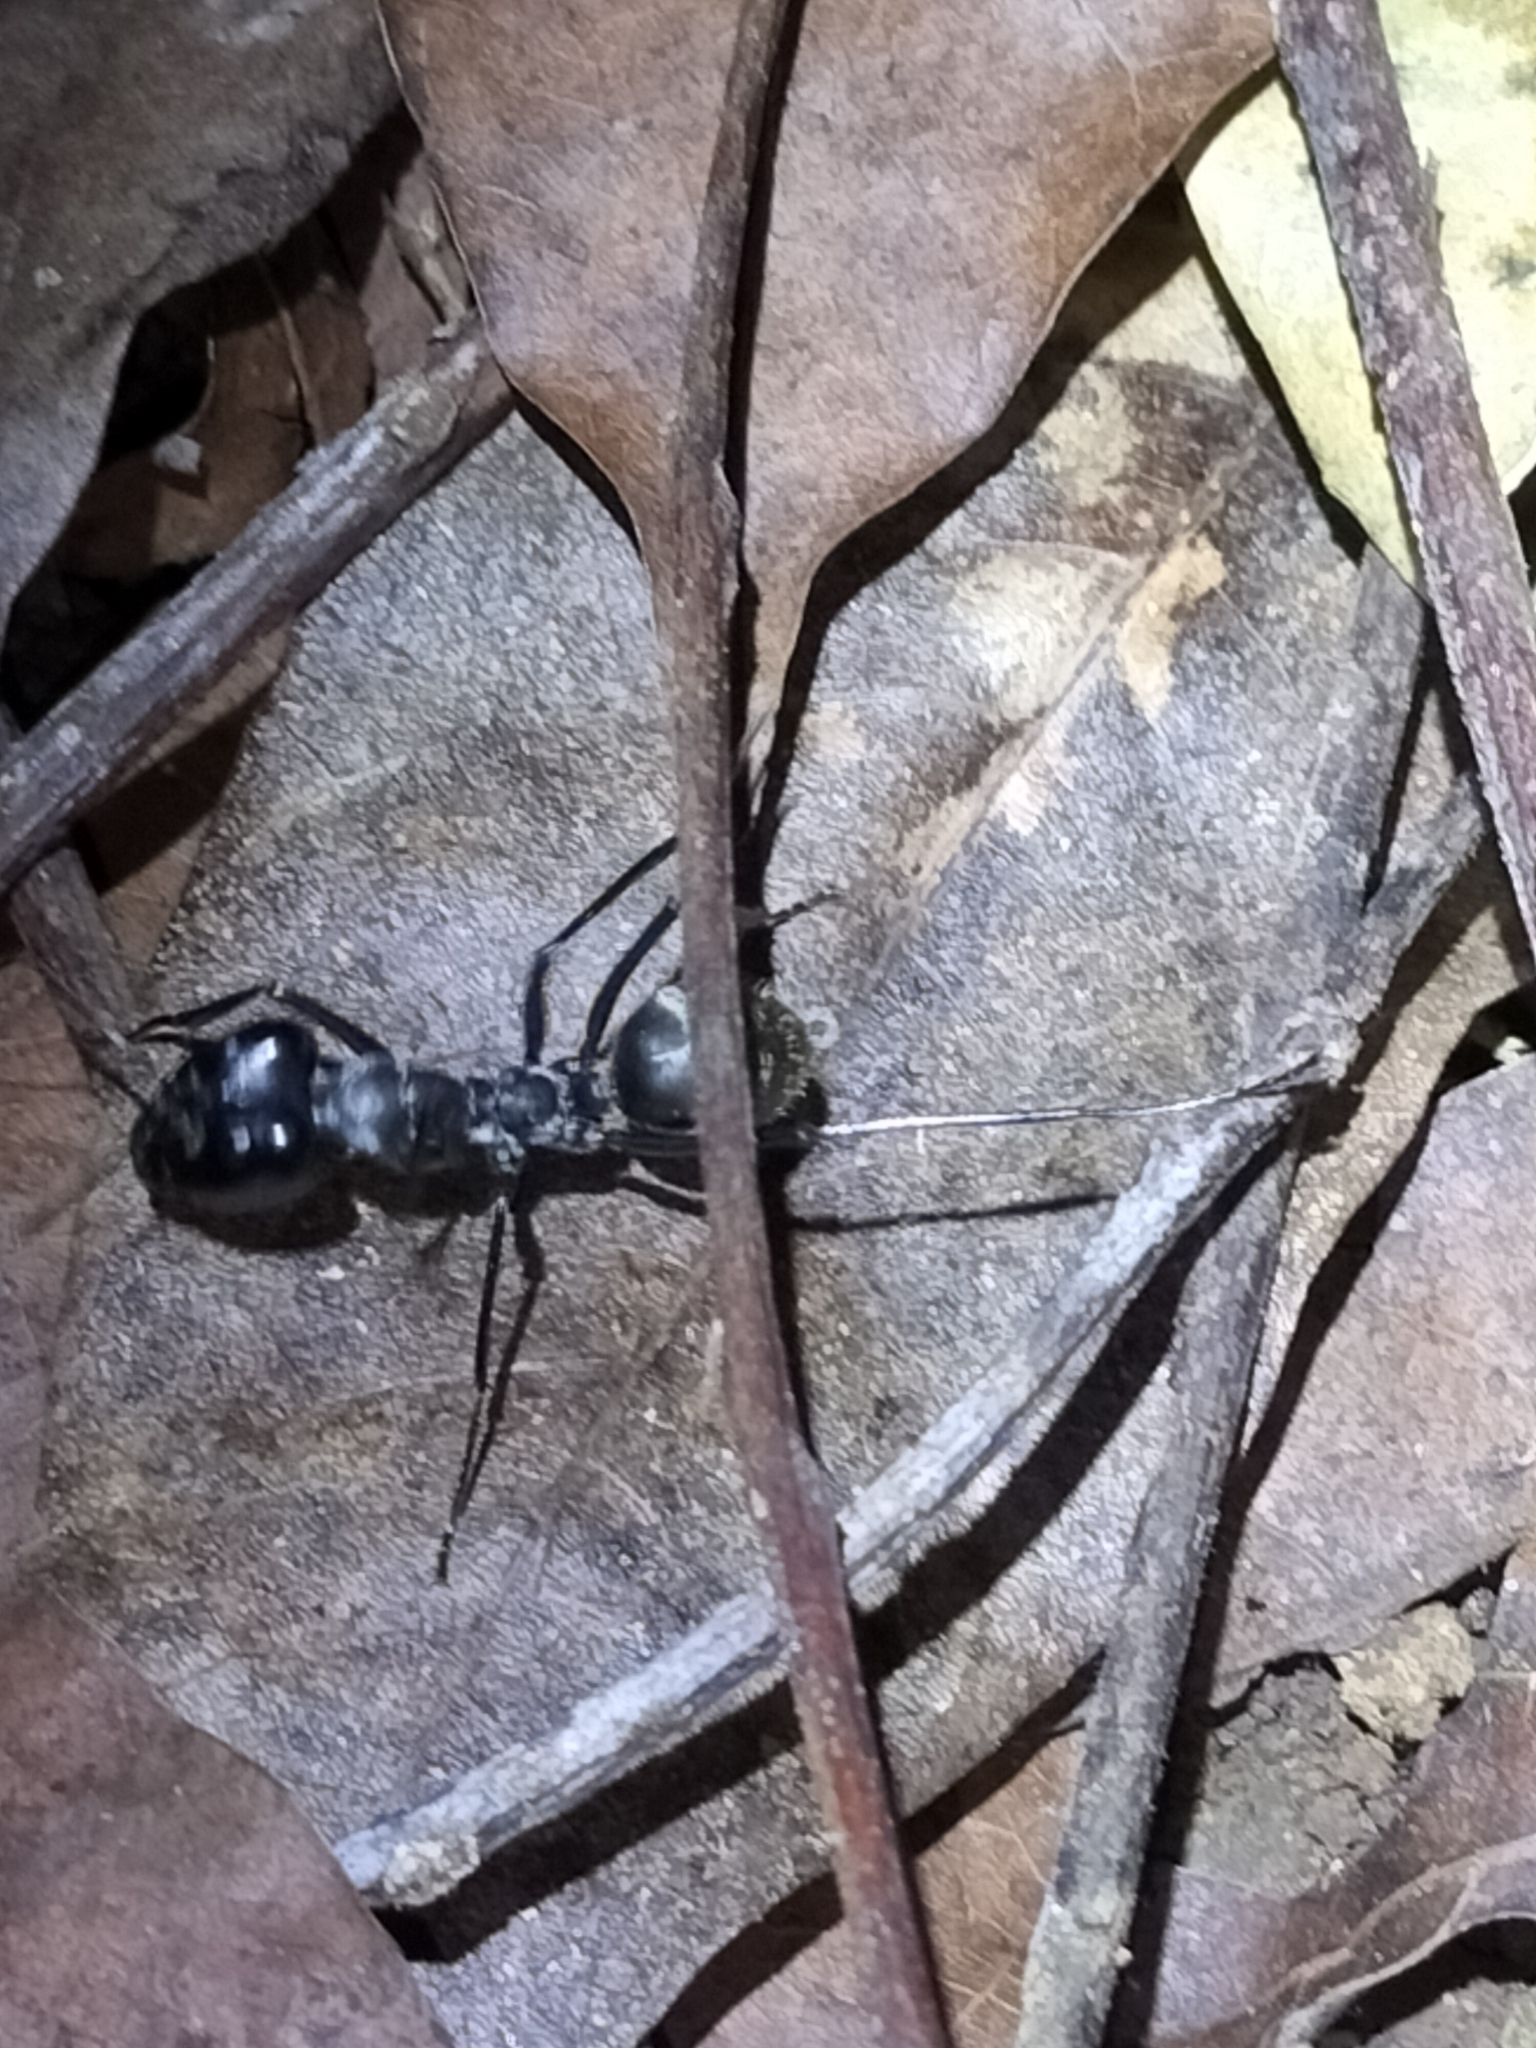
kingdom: Animalia
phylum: Arthropoda
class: Insecta
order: Hymenoptera
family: Formicidae
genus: Notostigma
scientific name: Notostigma carazzii
